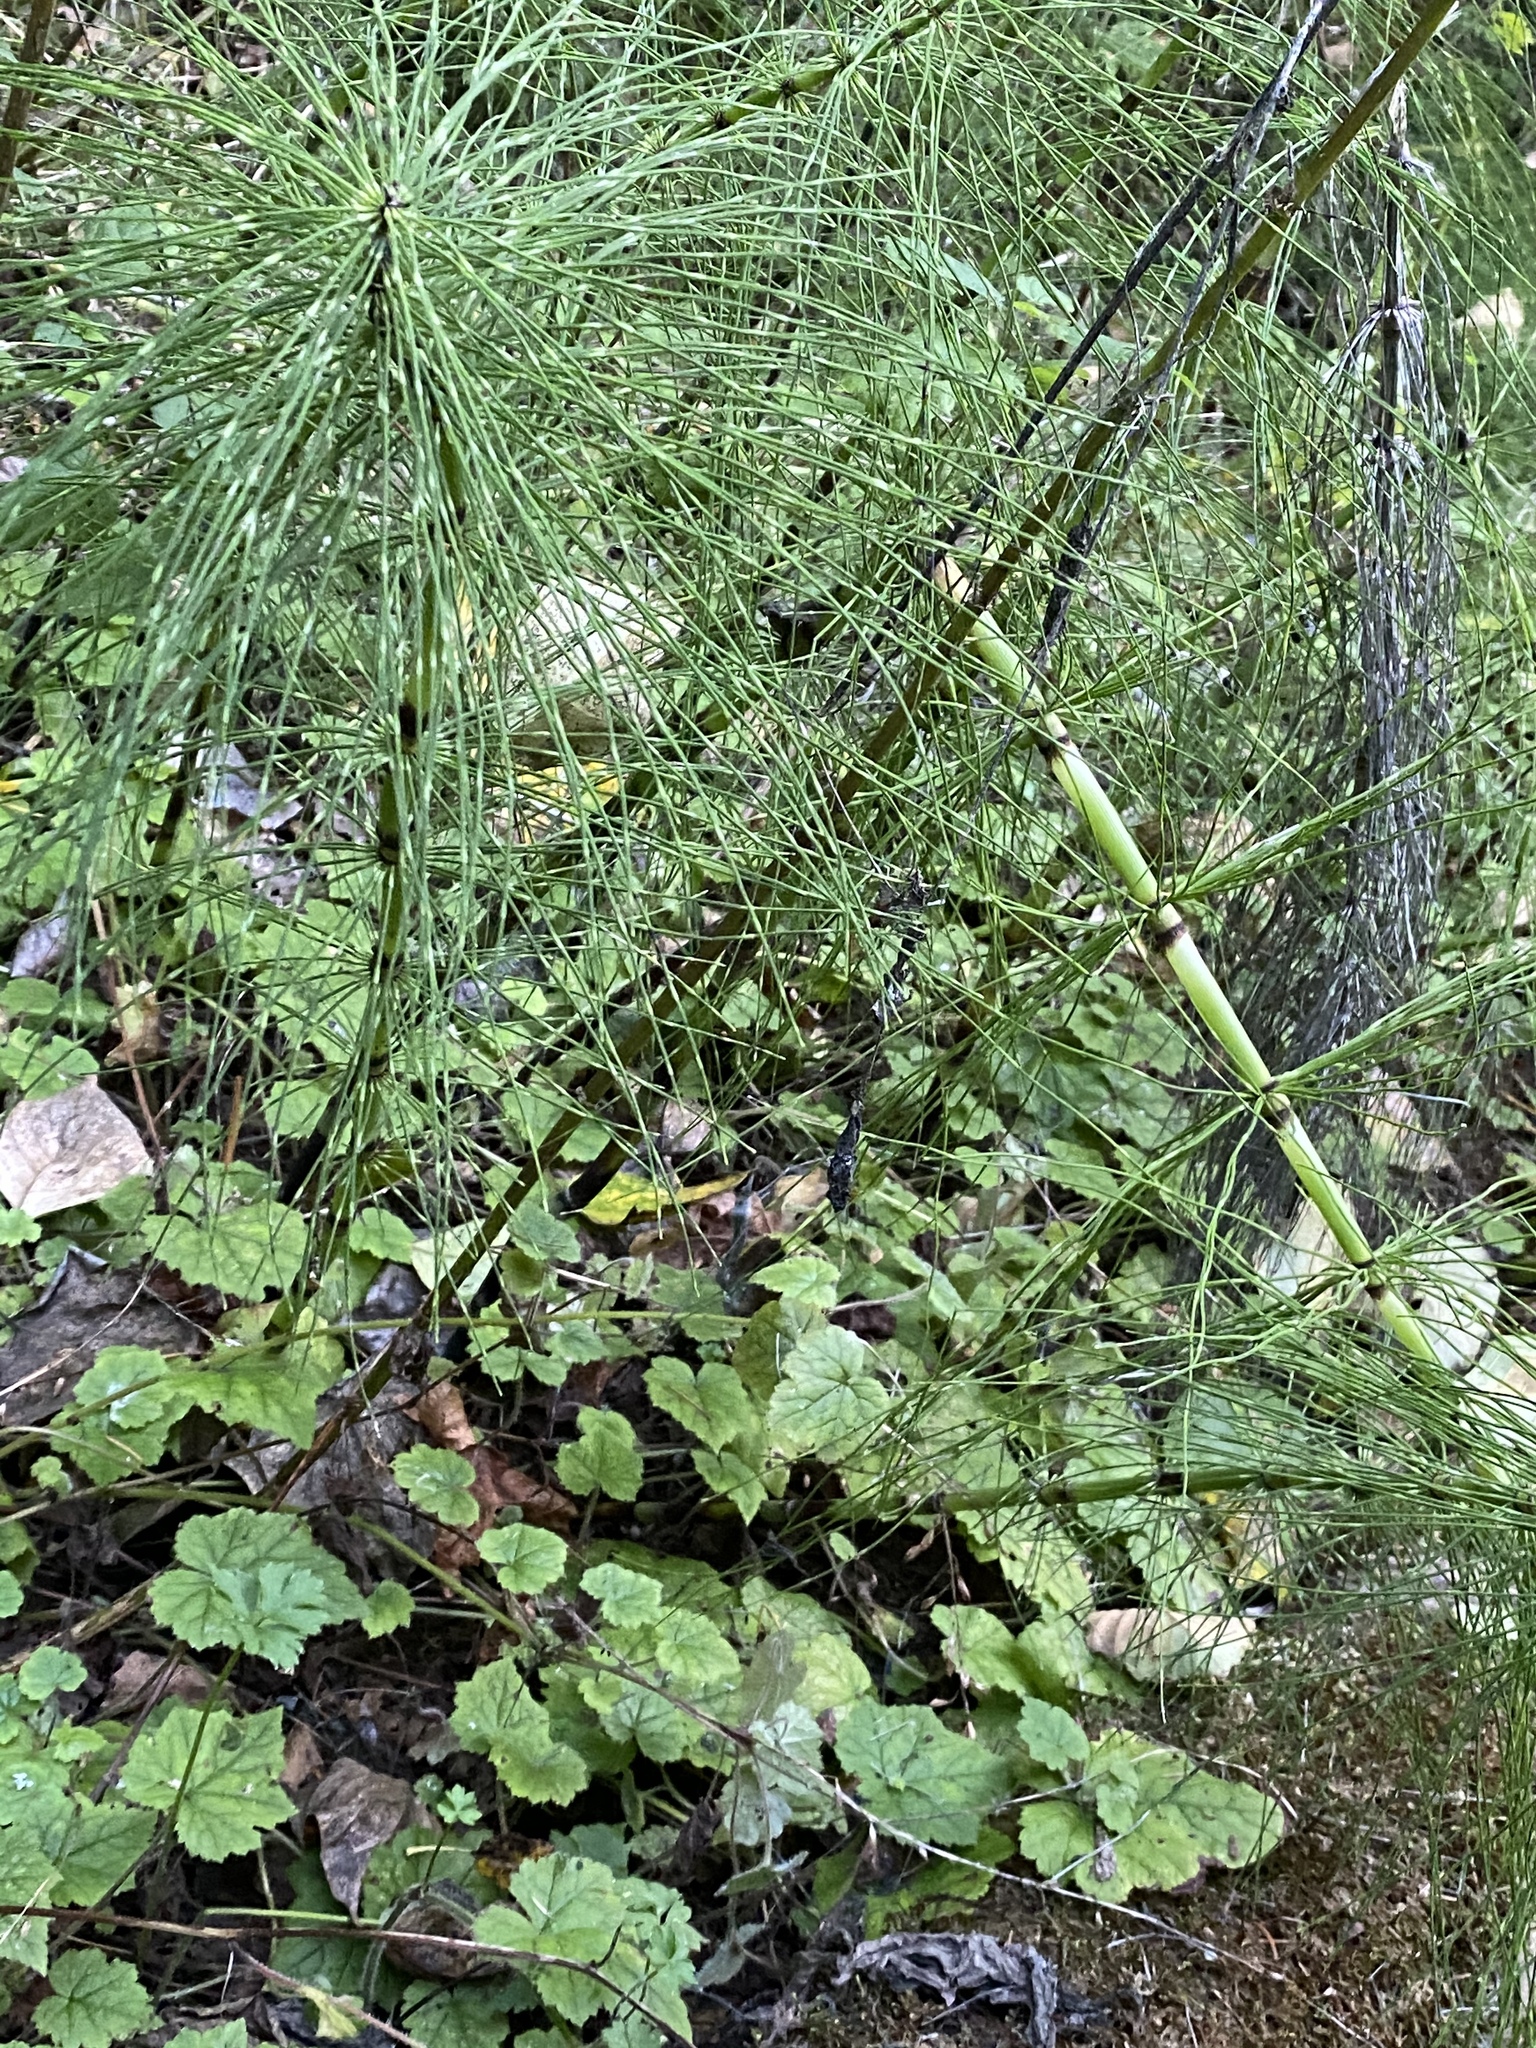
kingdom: Plantae
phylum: Tracheophyta
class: Polypodiopsida
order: Equisetales
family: Equisetaceae
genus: Equisetum
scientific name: Equisetum braunii
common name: Braun's horsetail
